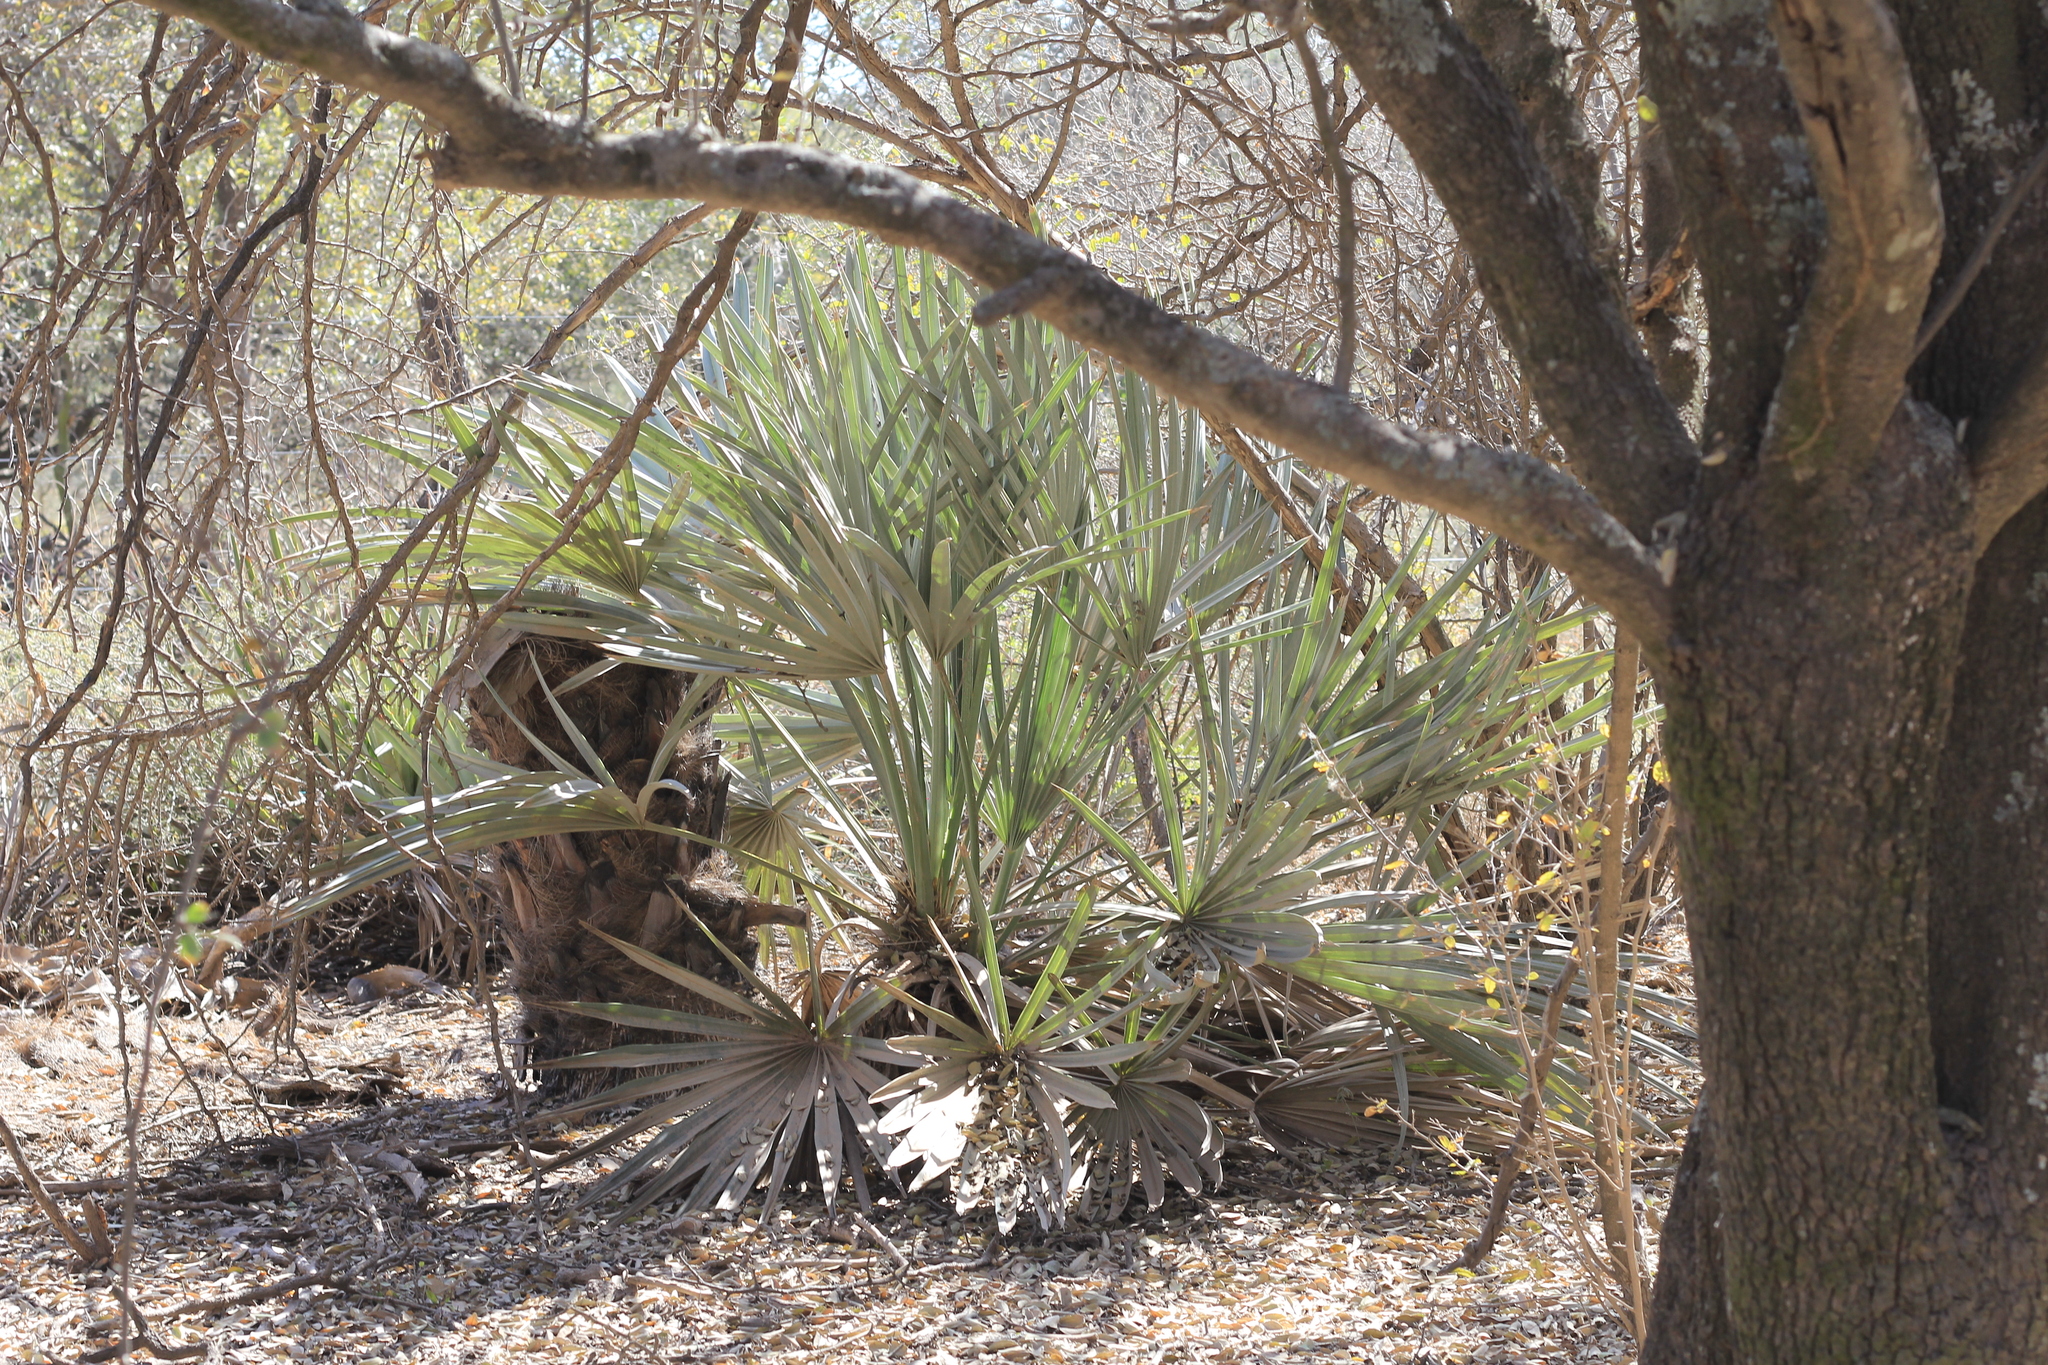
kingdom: Plantae
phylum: Tracheophyta
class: Liliopsida
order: Arecales
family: Arecaceae
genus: Trithrinax
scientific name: Trithrinax campestris
